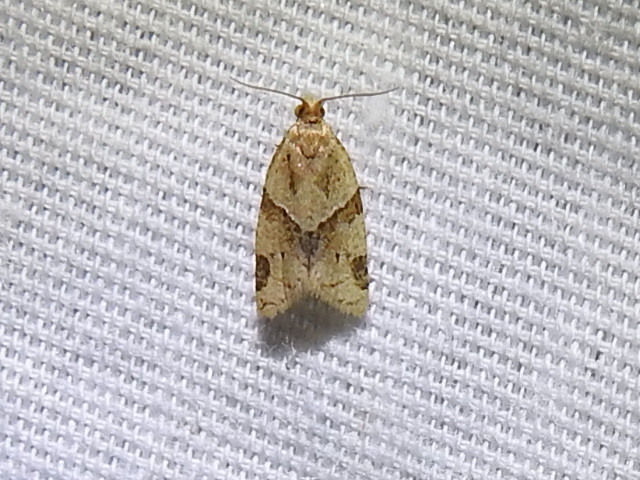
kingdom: Animalia
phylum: Arthropoda
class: Insecta
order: Lepidoptera
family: Tortricidae
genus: Clepsis
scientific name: Clepsis peritana
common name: Garden tortrix
